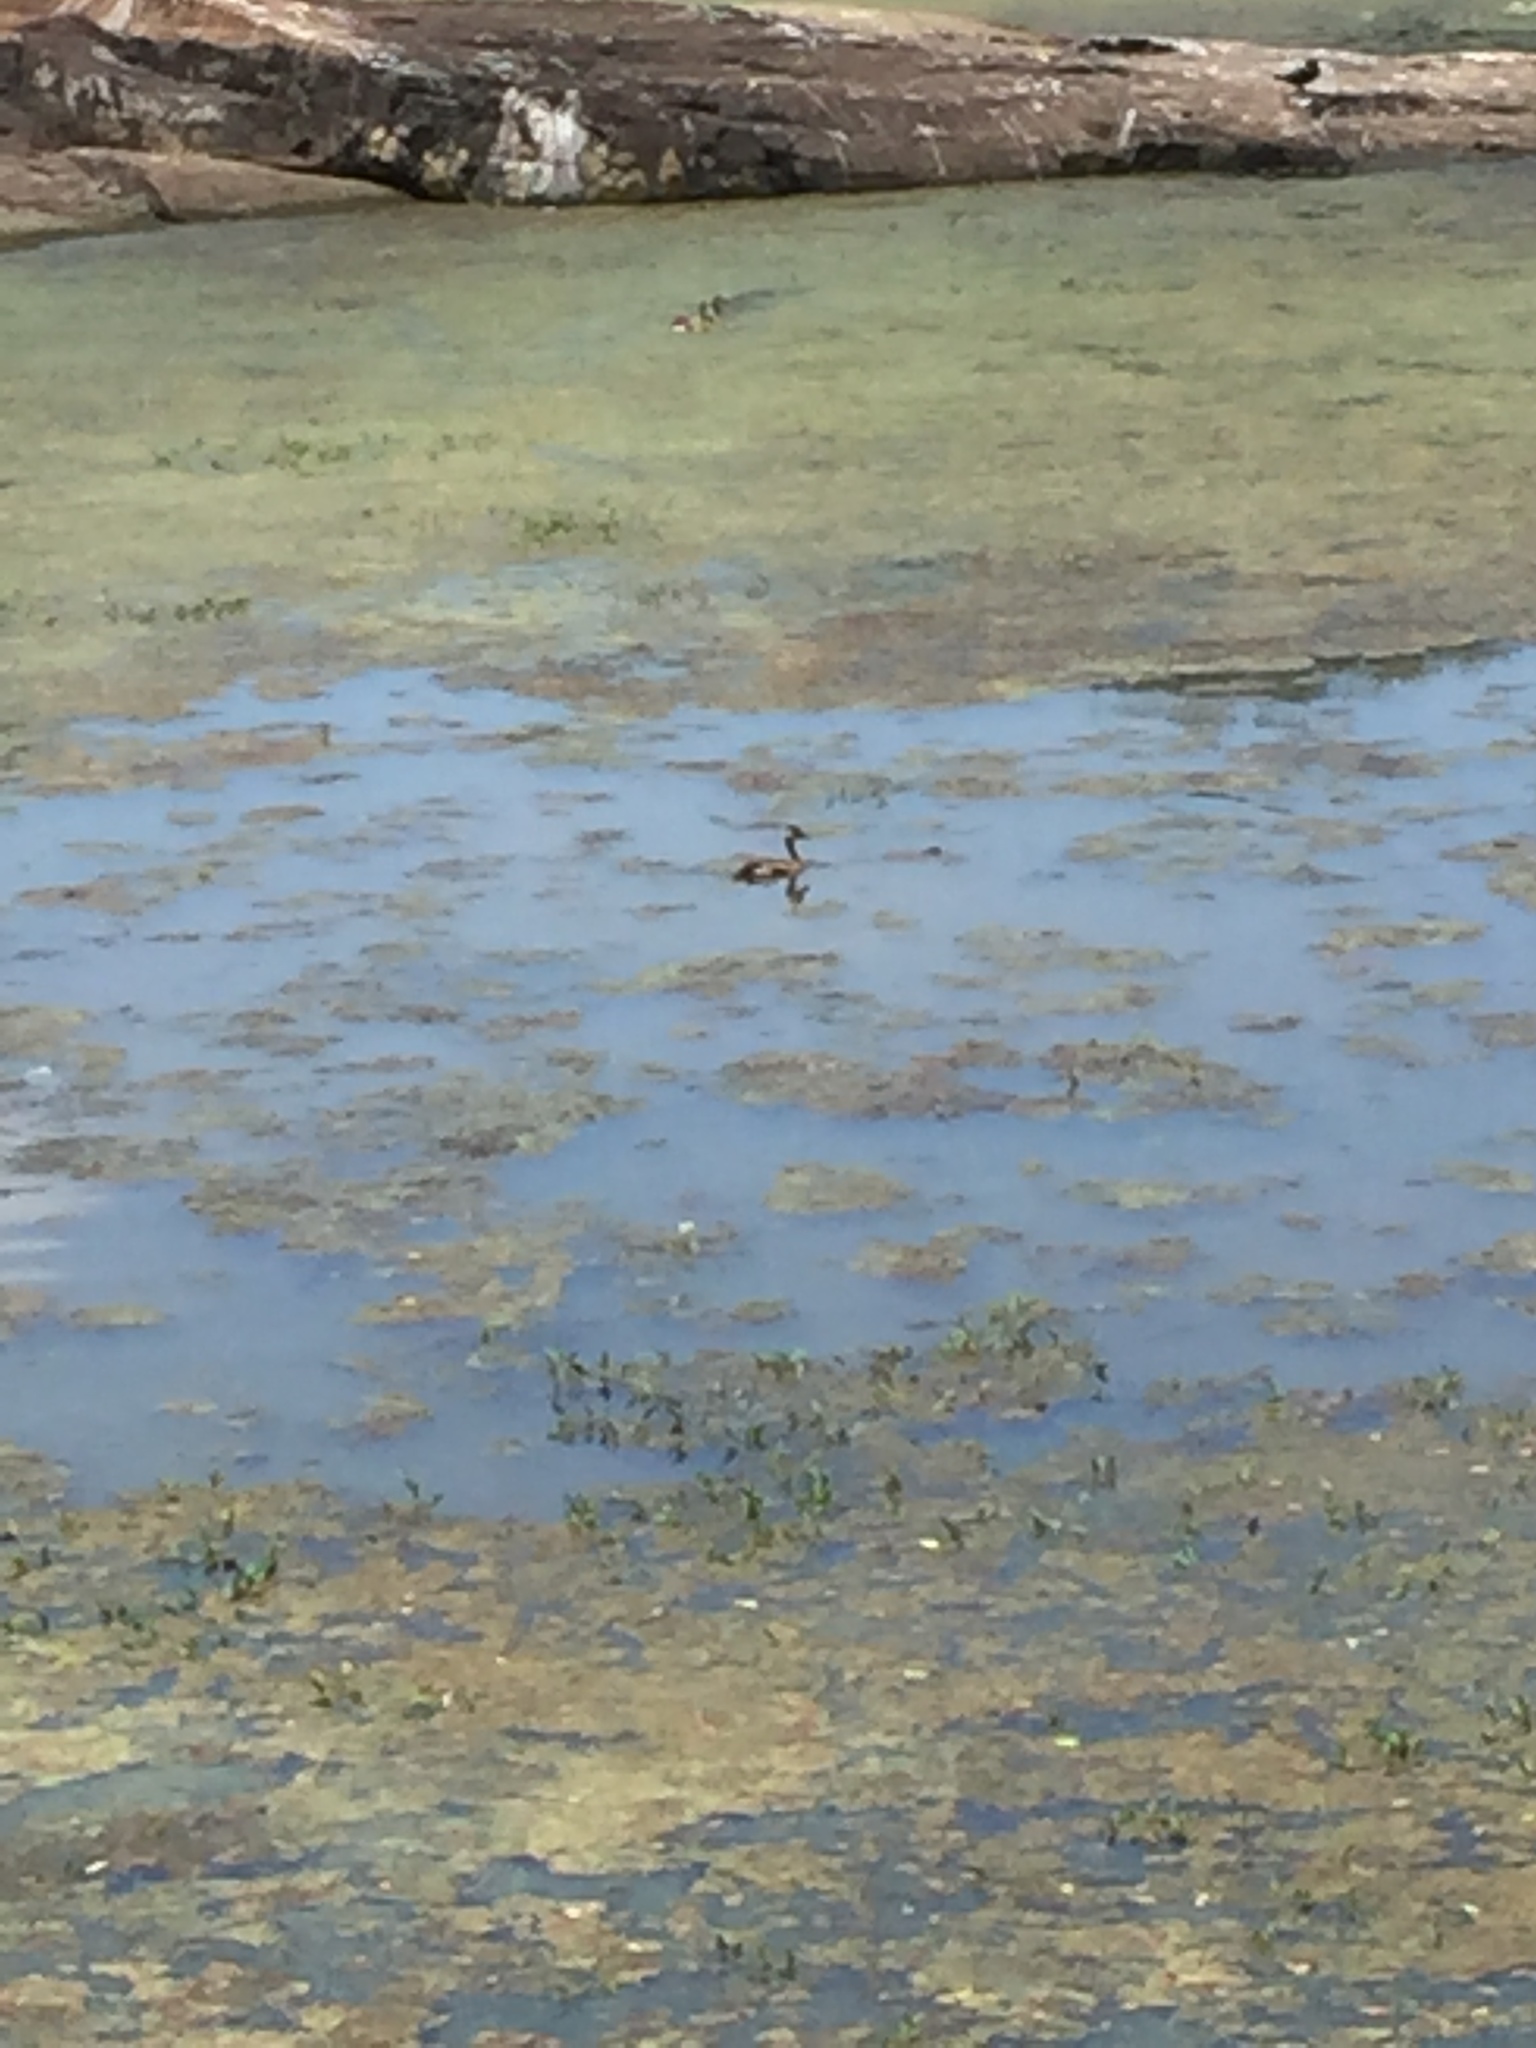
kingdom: Animalia
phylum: Chordata
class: Aves
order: Anseriformes
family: Anatidae
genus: Dendrocygna
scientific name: Dendrocygna javanica
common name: Lesser whistling-duck
